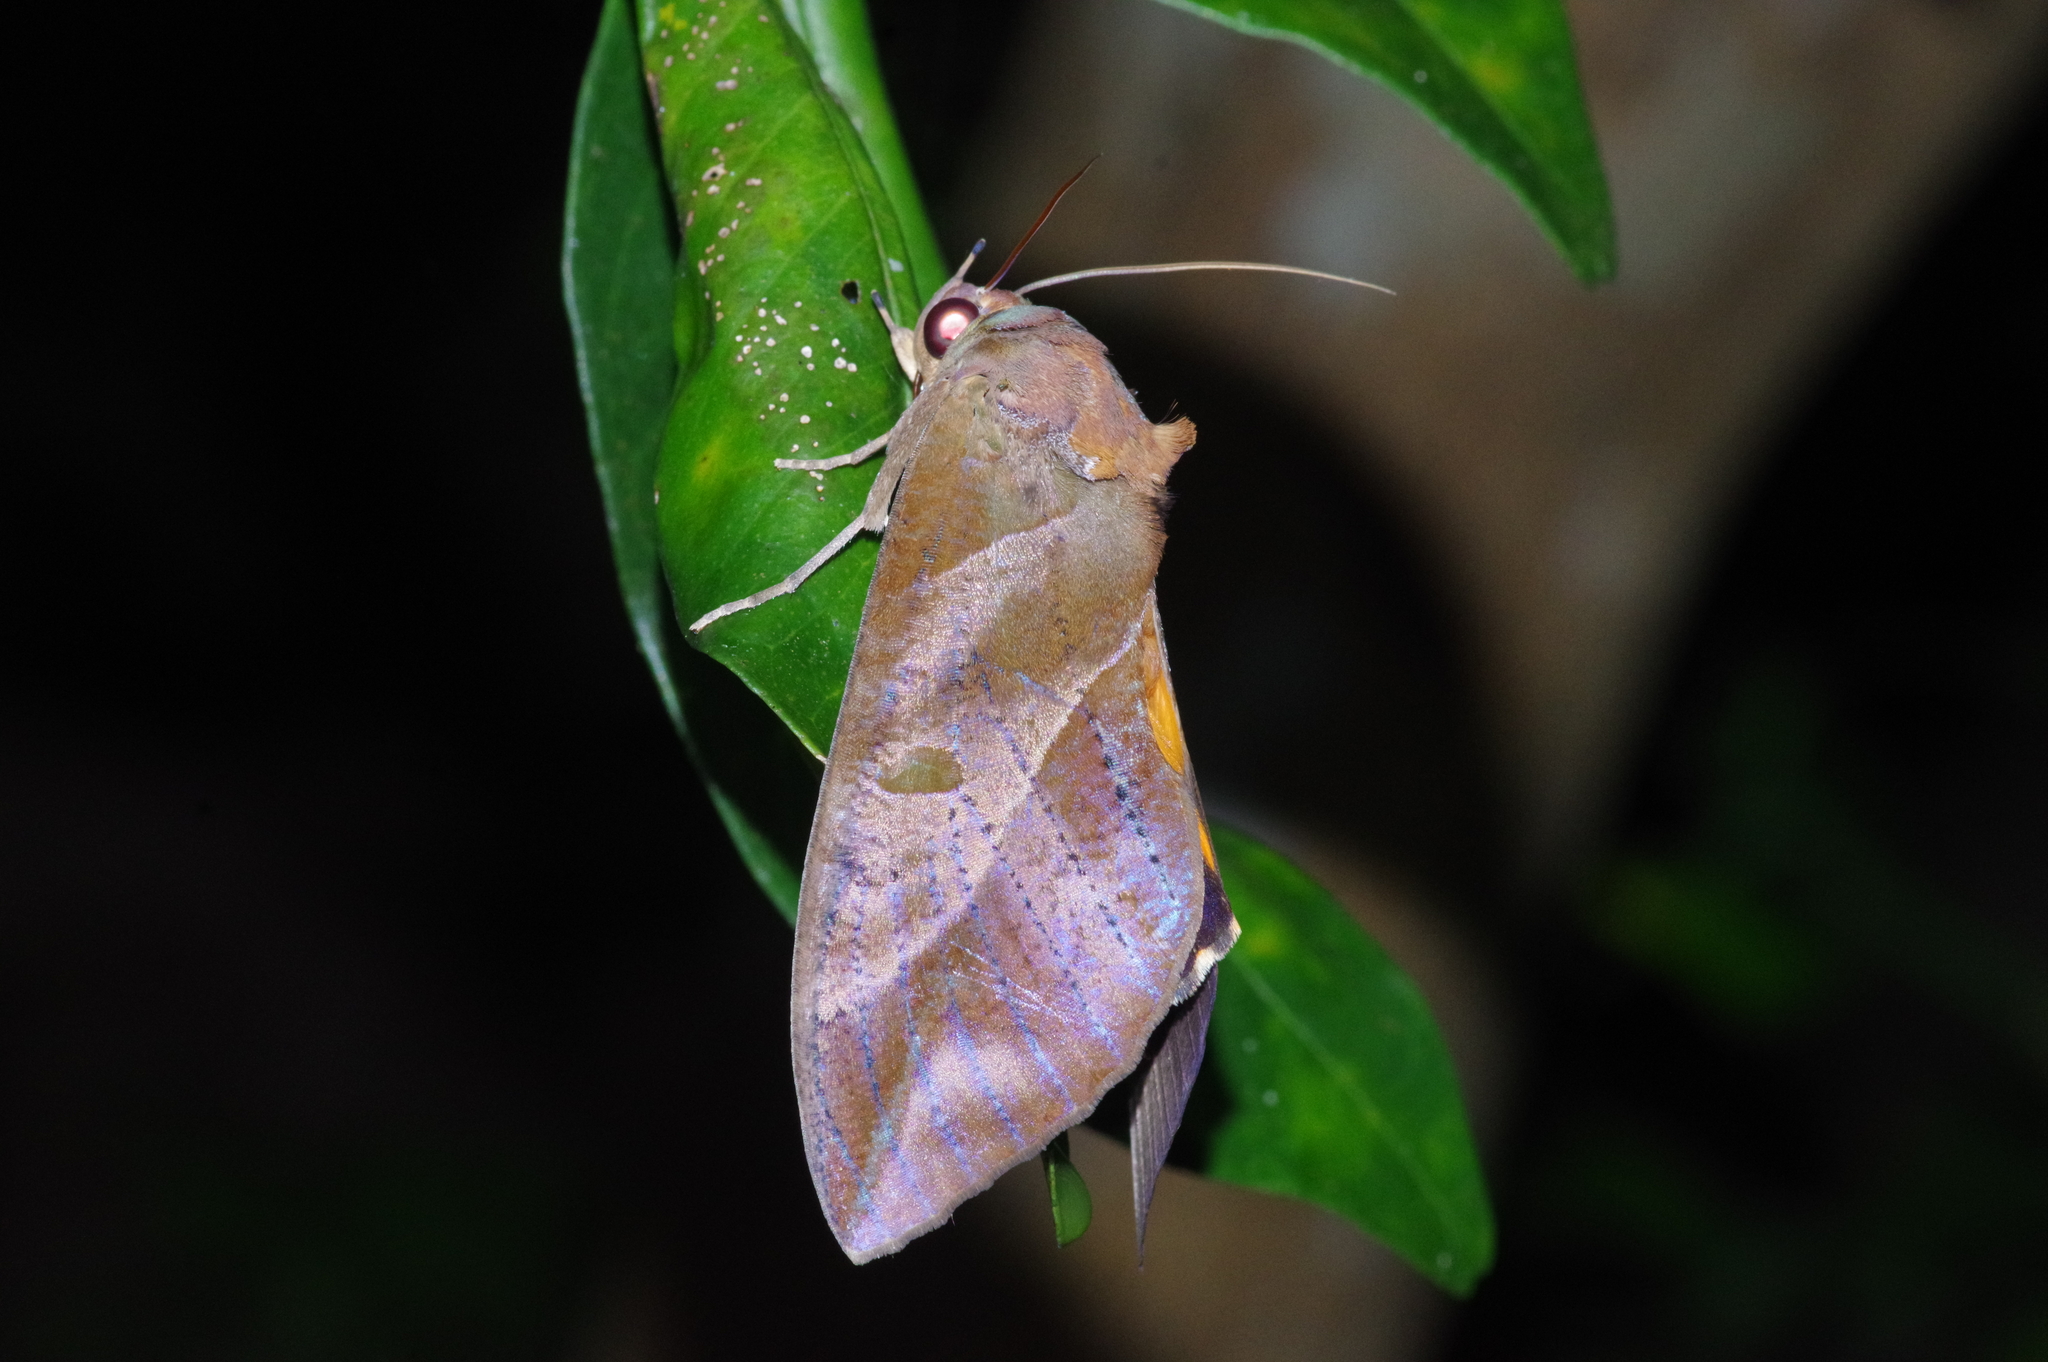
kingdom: Animalia
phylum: Arthropoda
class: Insecta
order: Lepidoptera
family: Erebidae
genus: Eudocima
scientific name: Eudocima phalonia
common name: Wasp
